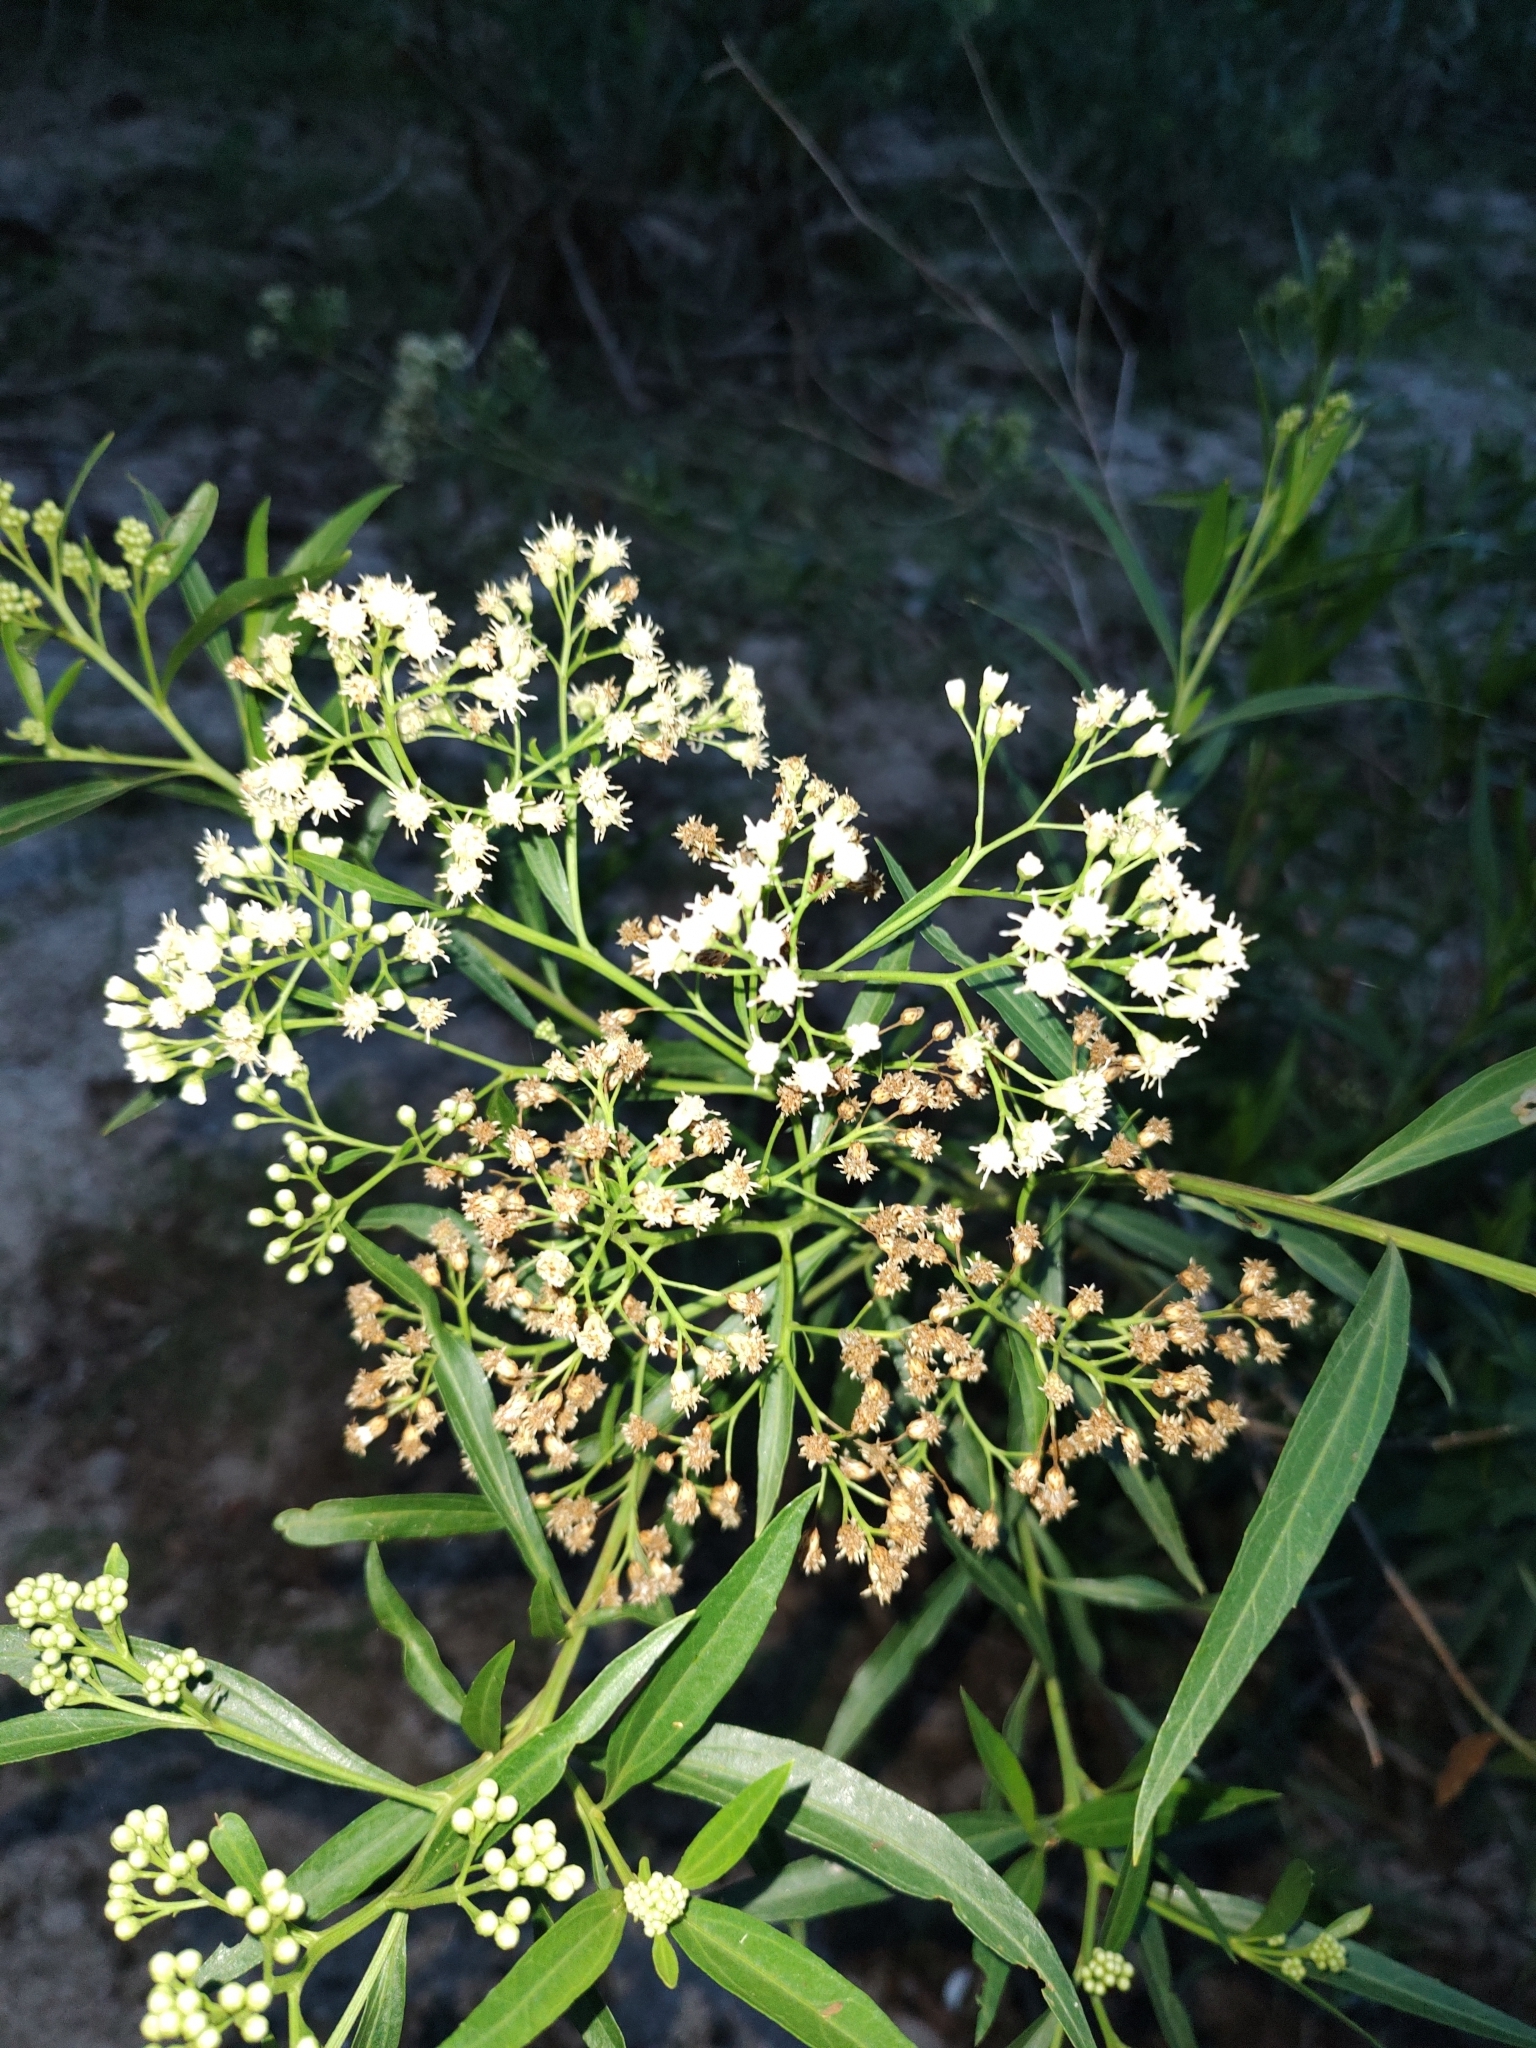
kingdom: Plantae
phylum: Tracheophyta
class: Magnoliopsida
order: Asterales
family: Asteraceae
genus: Baccharis
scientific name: Baccharis salicifolia
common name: Sticky baccharis
